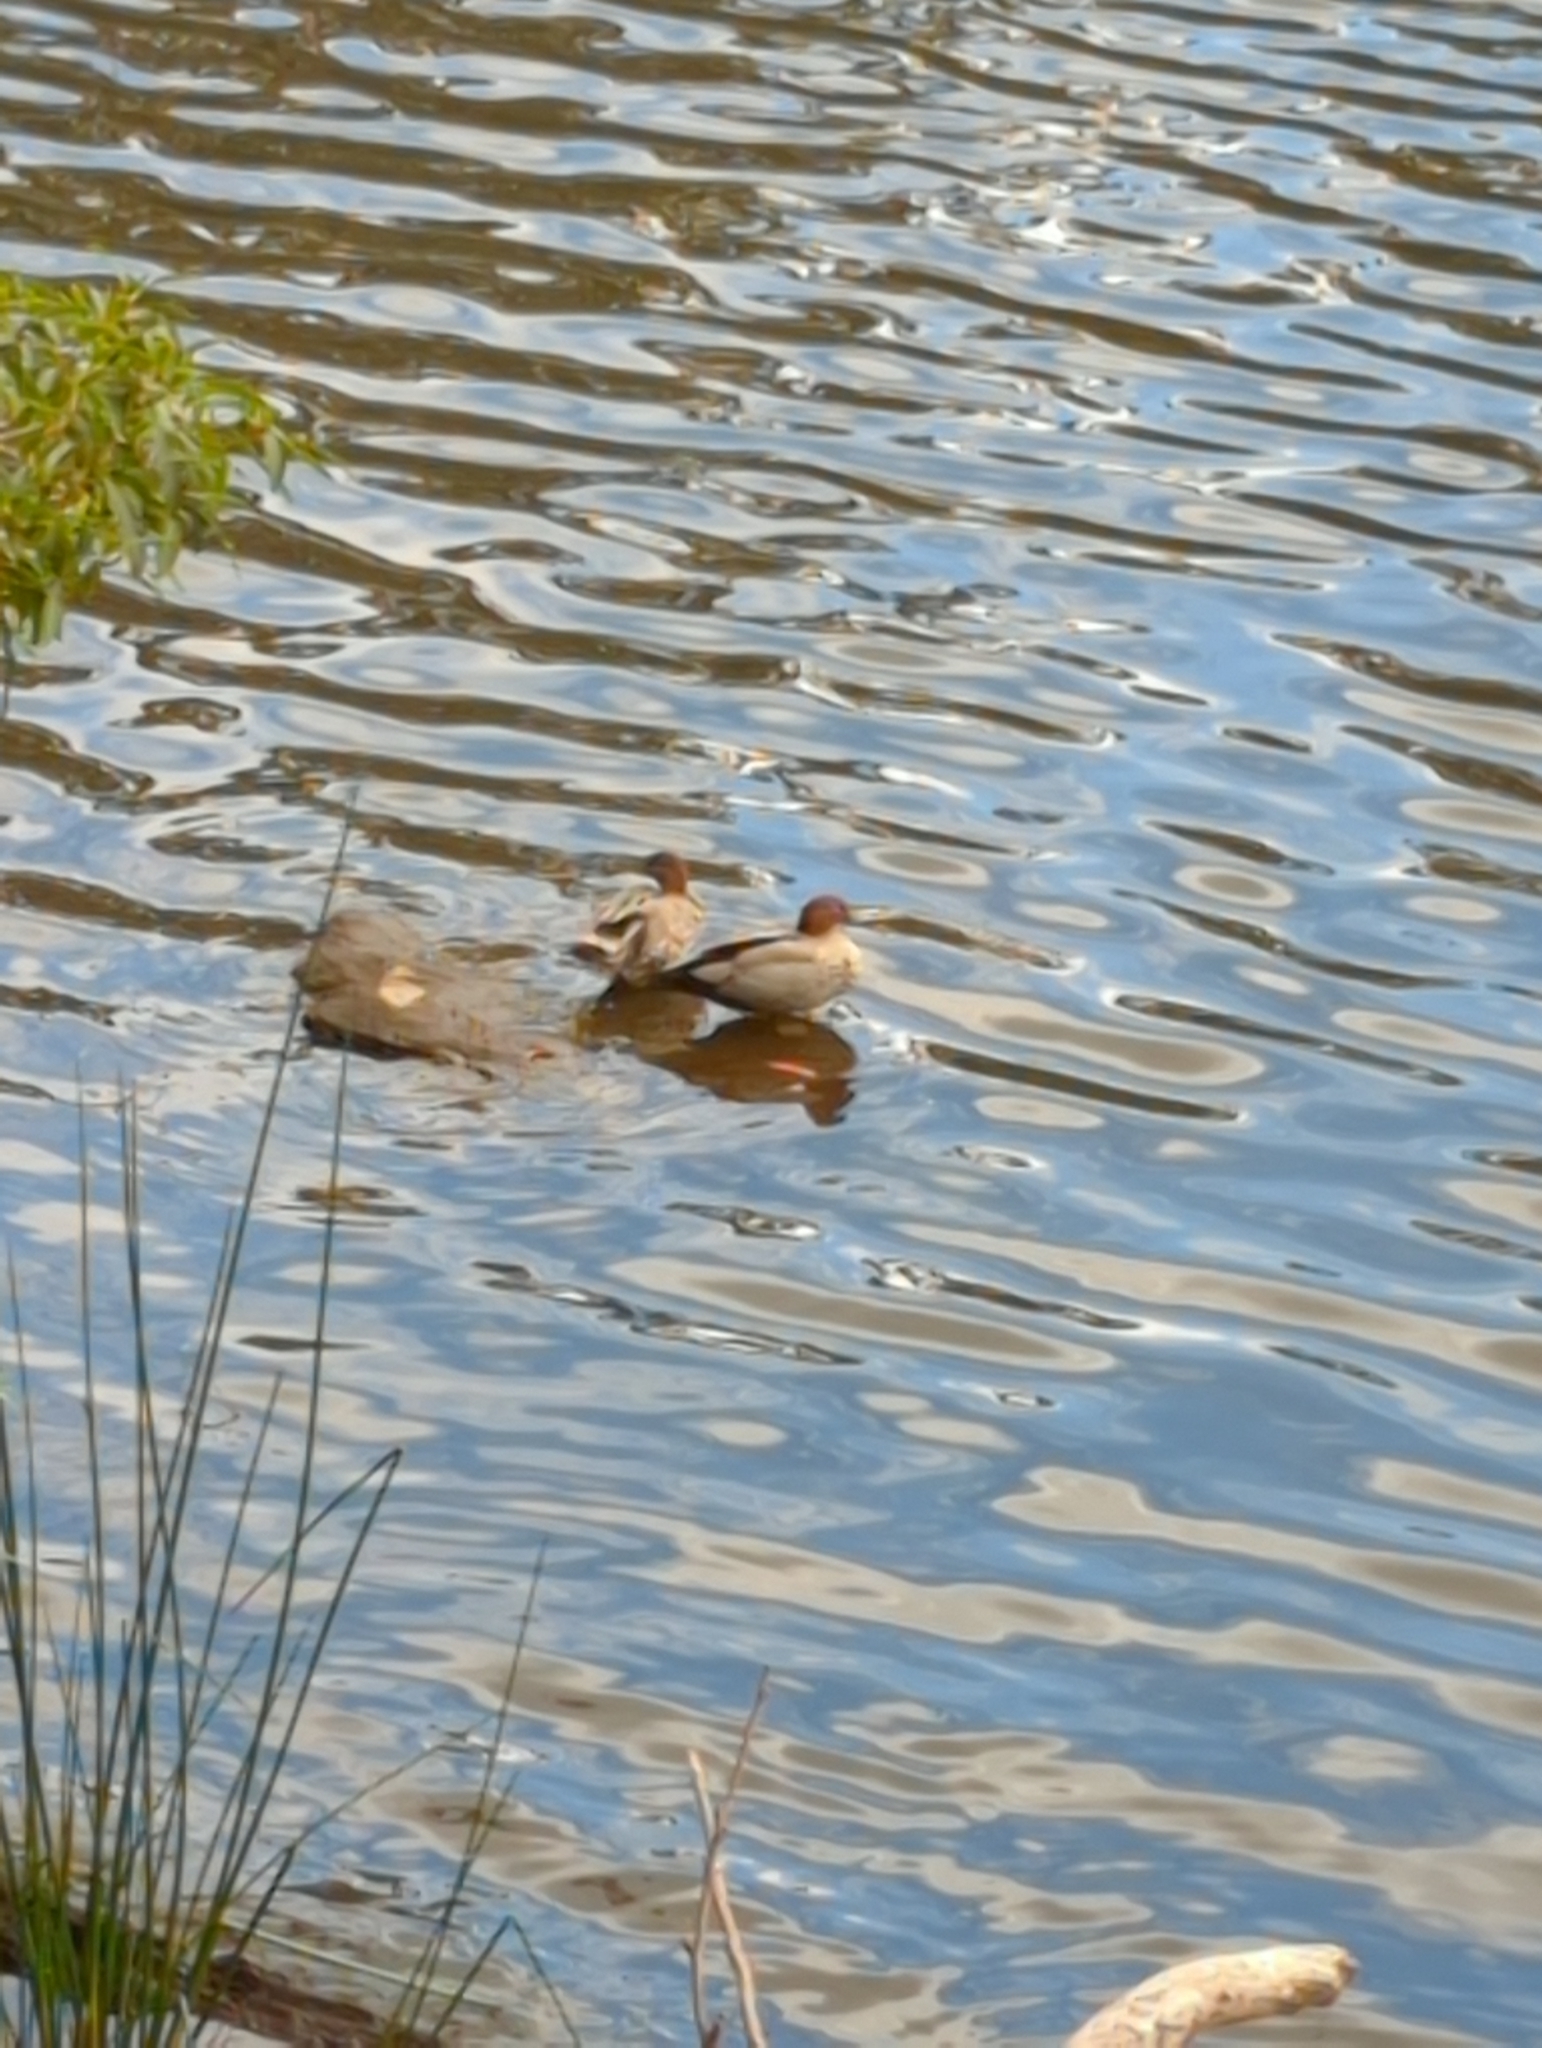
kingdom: Animalia
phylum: Chordata
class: Aves
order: Anseriformes
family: Anatidae
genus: Chenonetta
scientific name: Chenonetta jubata
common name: Maned duck
